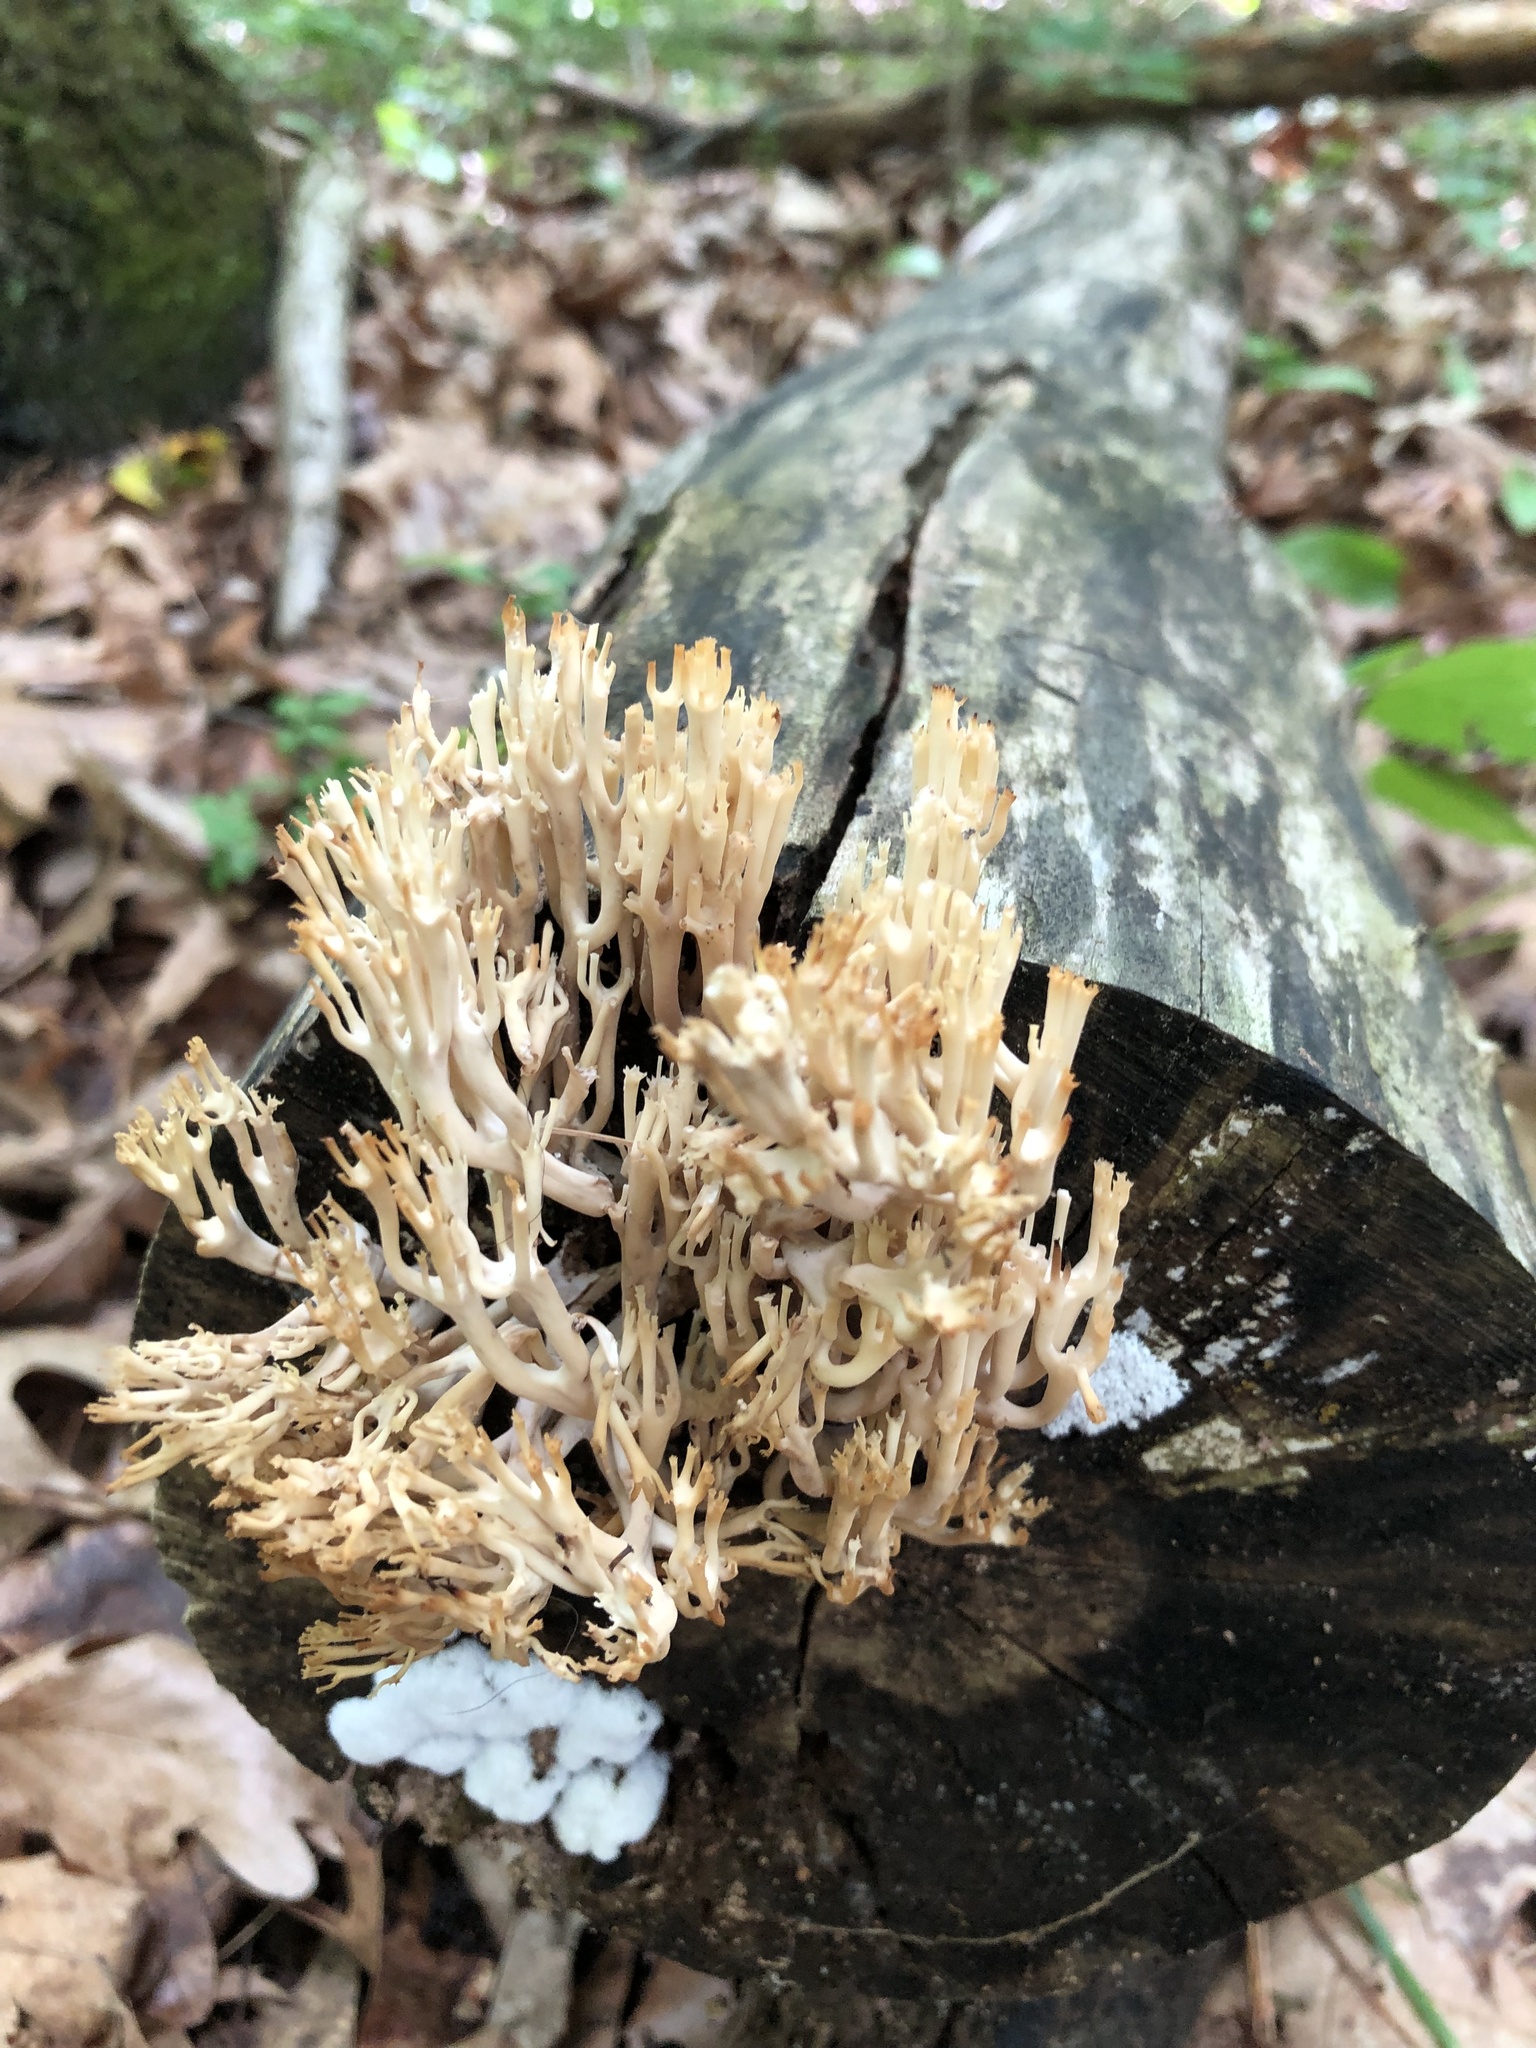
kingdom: Fungi
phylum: Basidiomycota
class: Agaricomycetes
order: Russulales
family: Auriscalpiaceae
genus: Artomyces
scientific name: Artomyces pyxidatus
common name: Crown-tipped coral fungus
